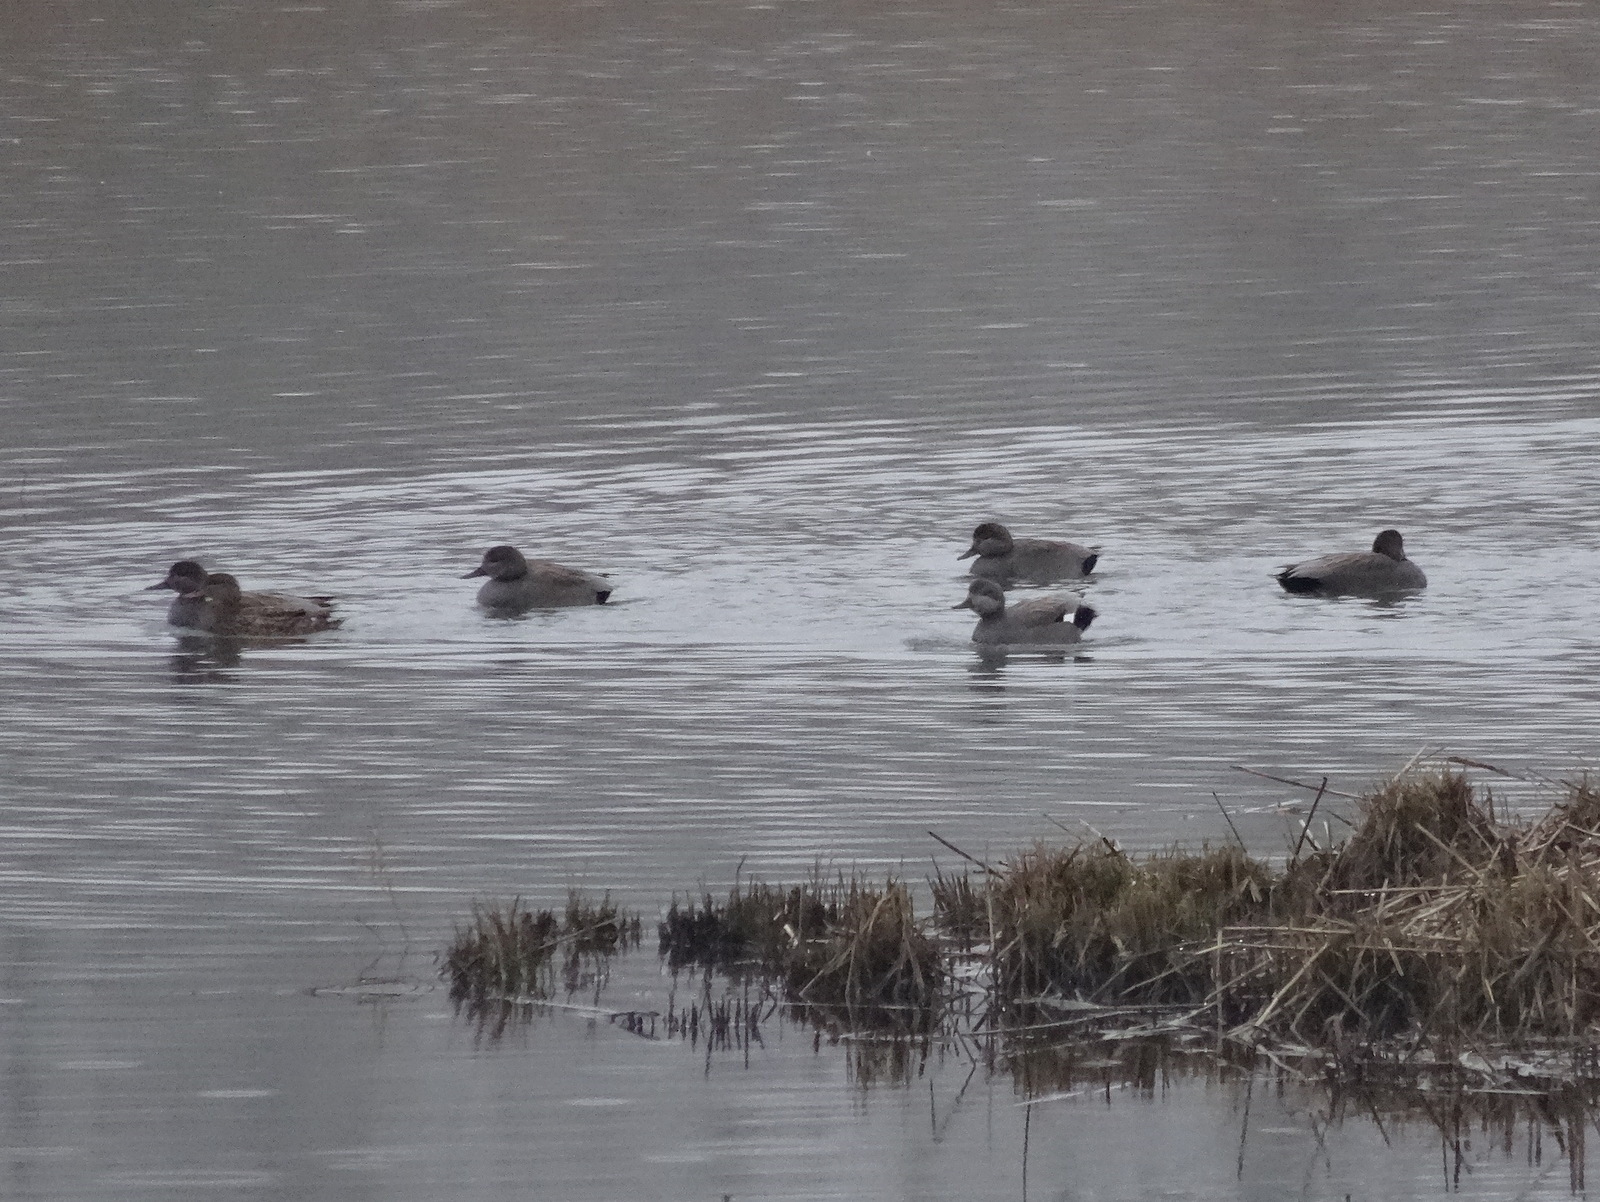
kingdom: Animalia
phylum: Chordata
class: Aves
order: Anseriformes
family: Anatidae
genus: Mareca
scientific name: Mareca strepera
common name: Gadwall
